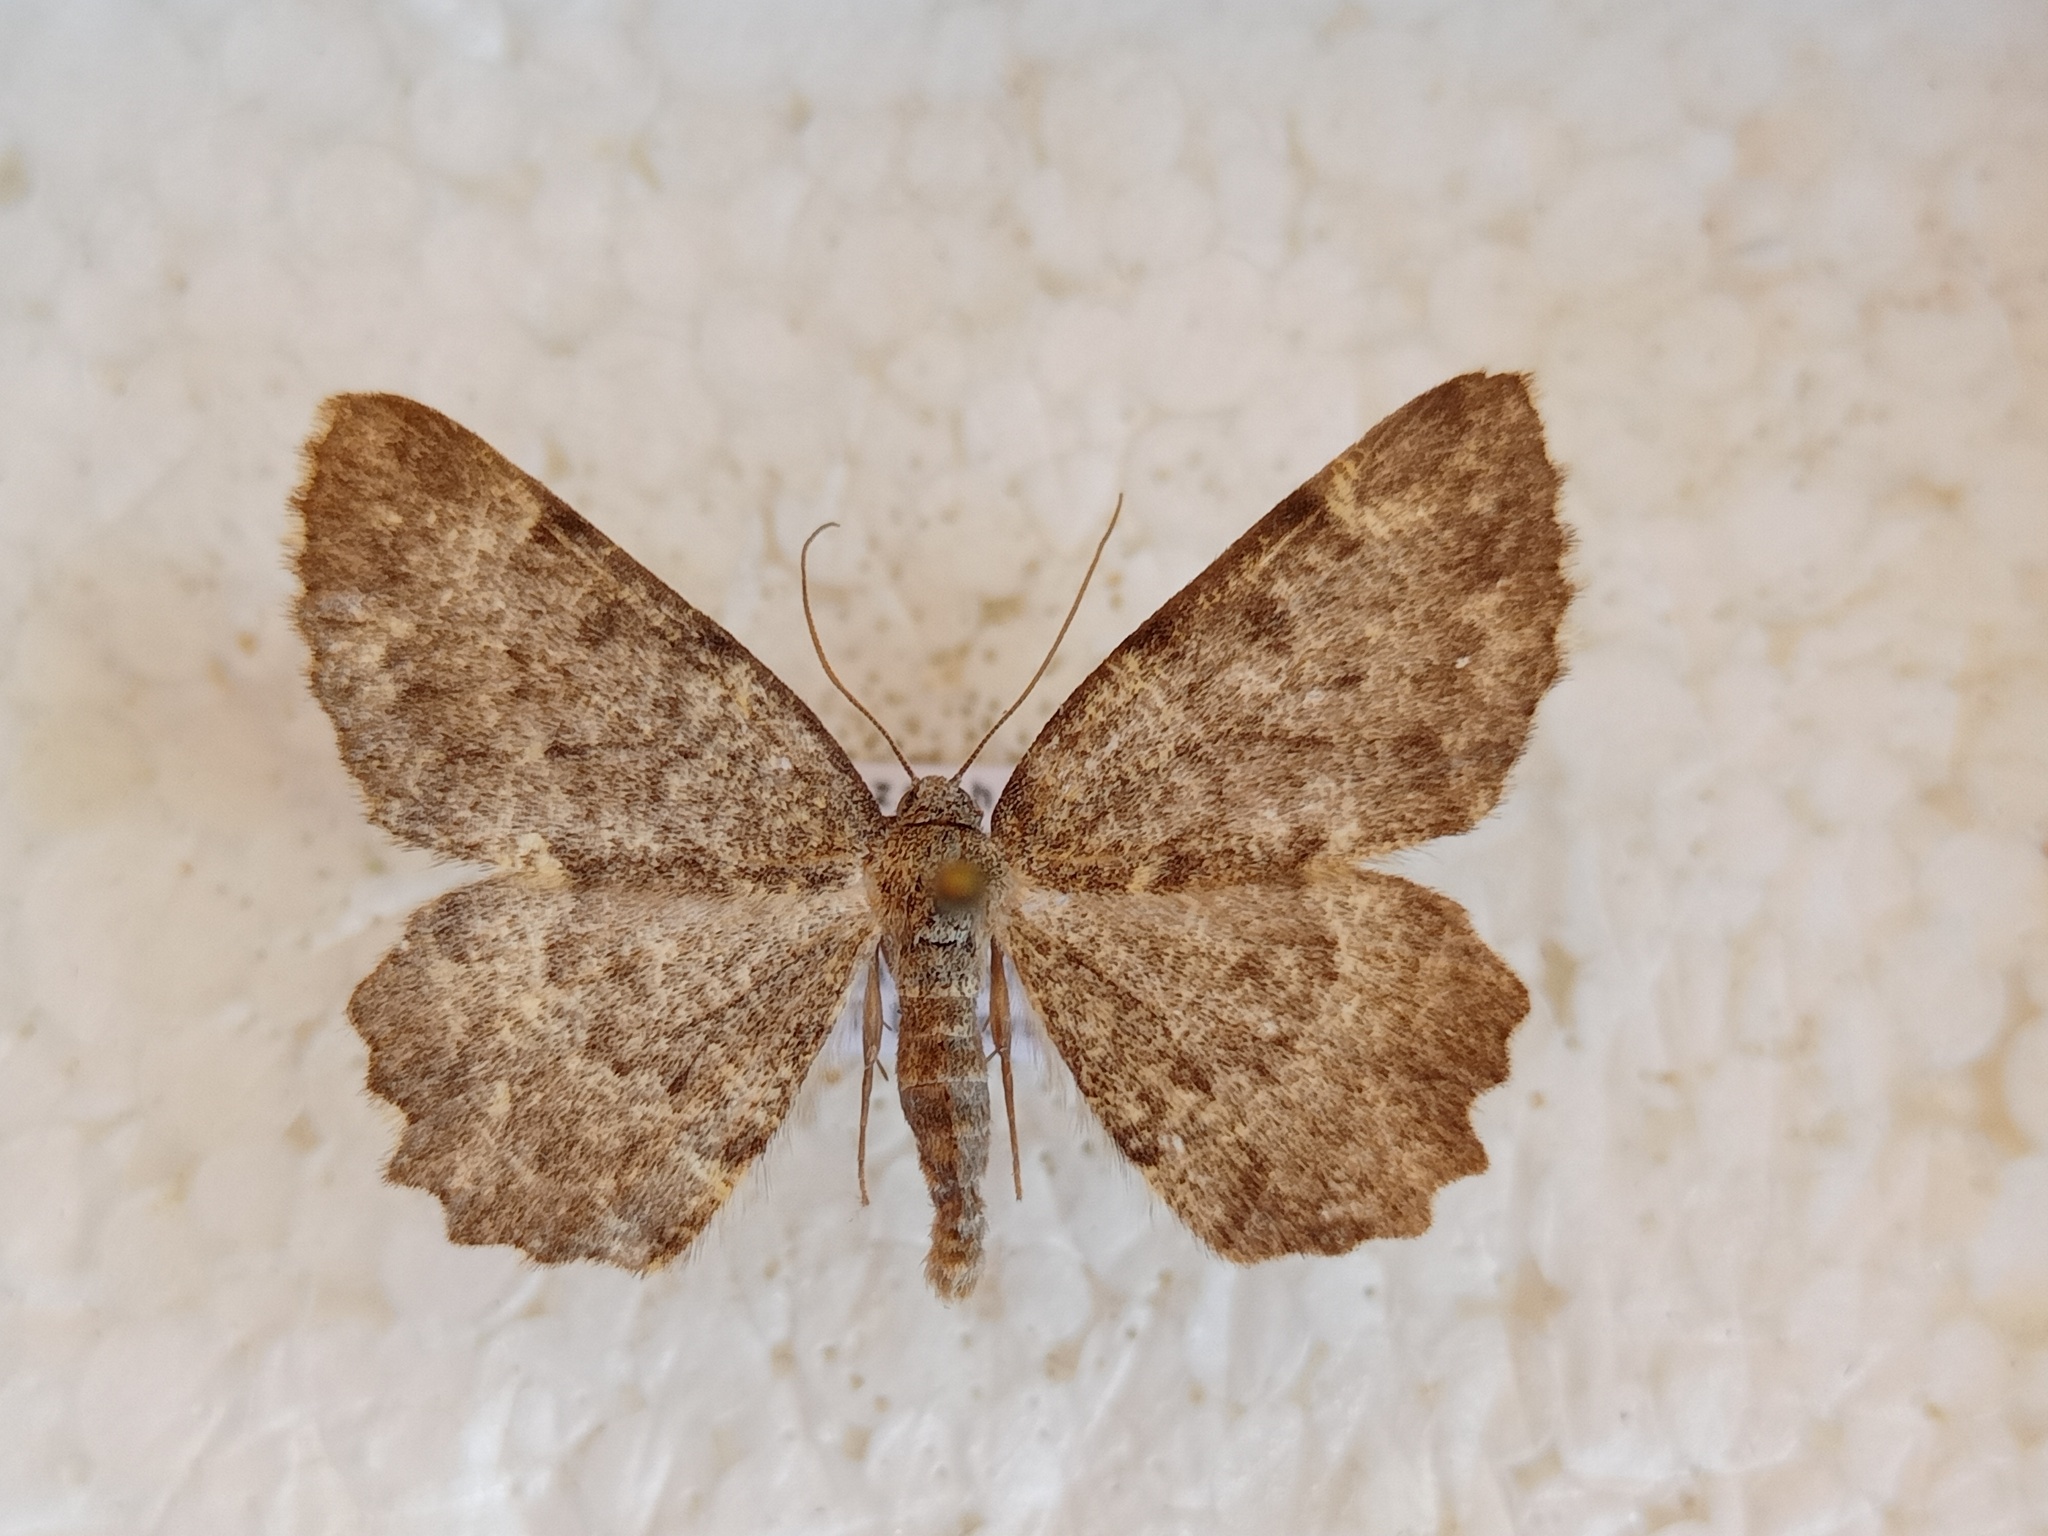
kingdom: Animalia
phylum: Arthropoda
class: Insecta
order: Lepidoptera
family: Geometridae
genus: Charissa
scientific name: Charissa supinaria
